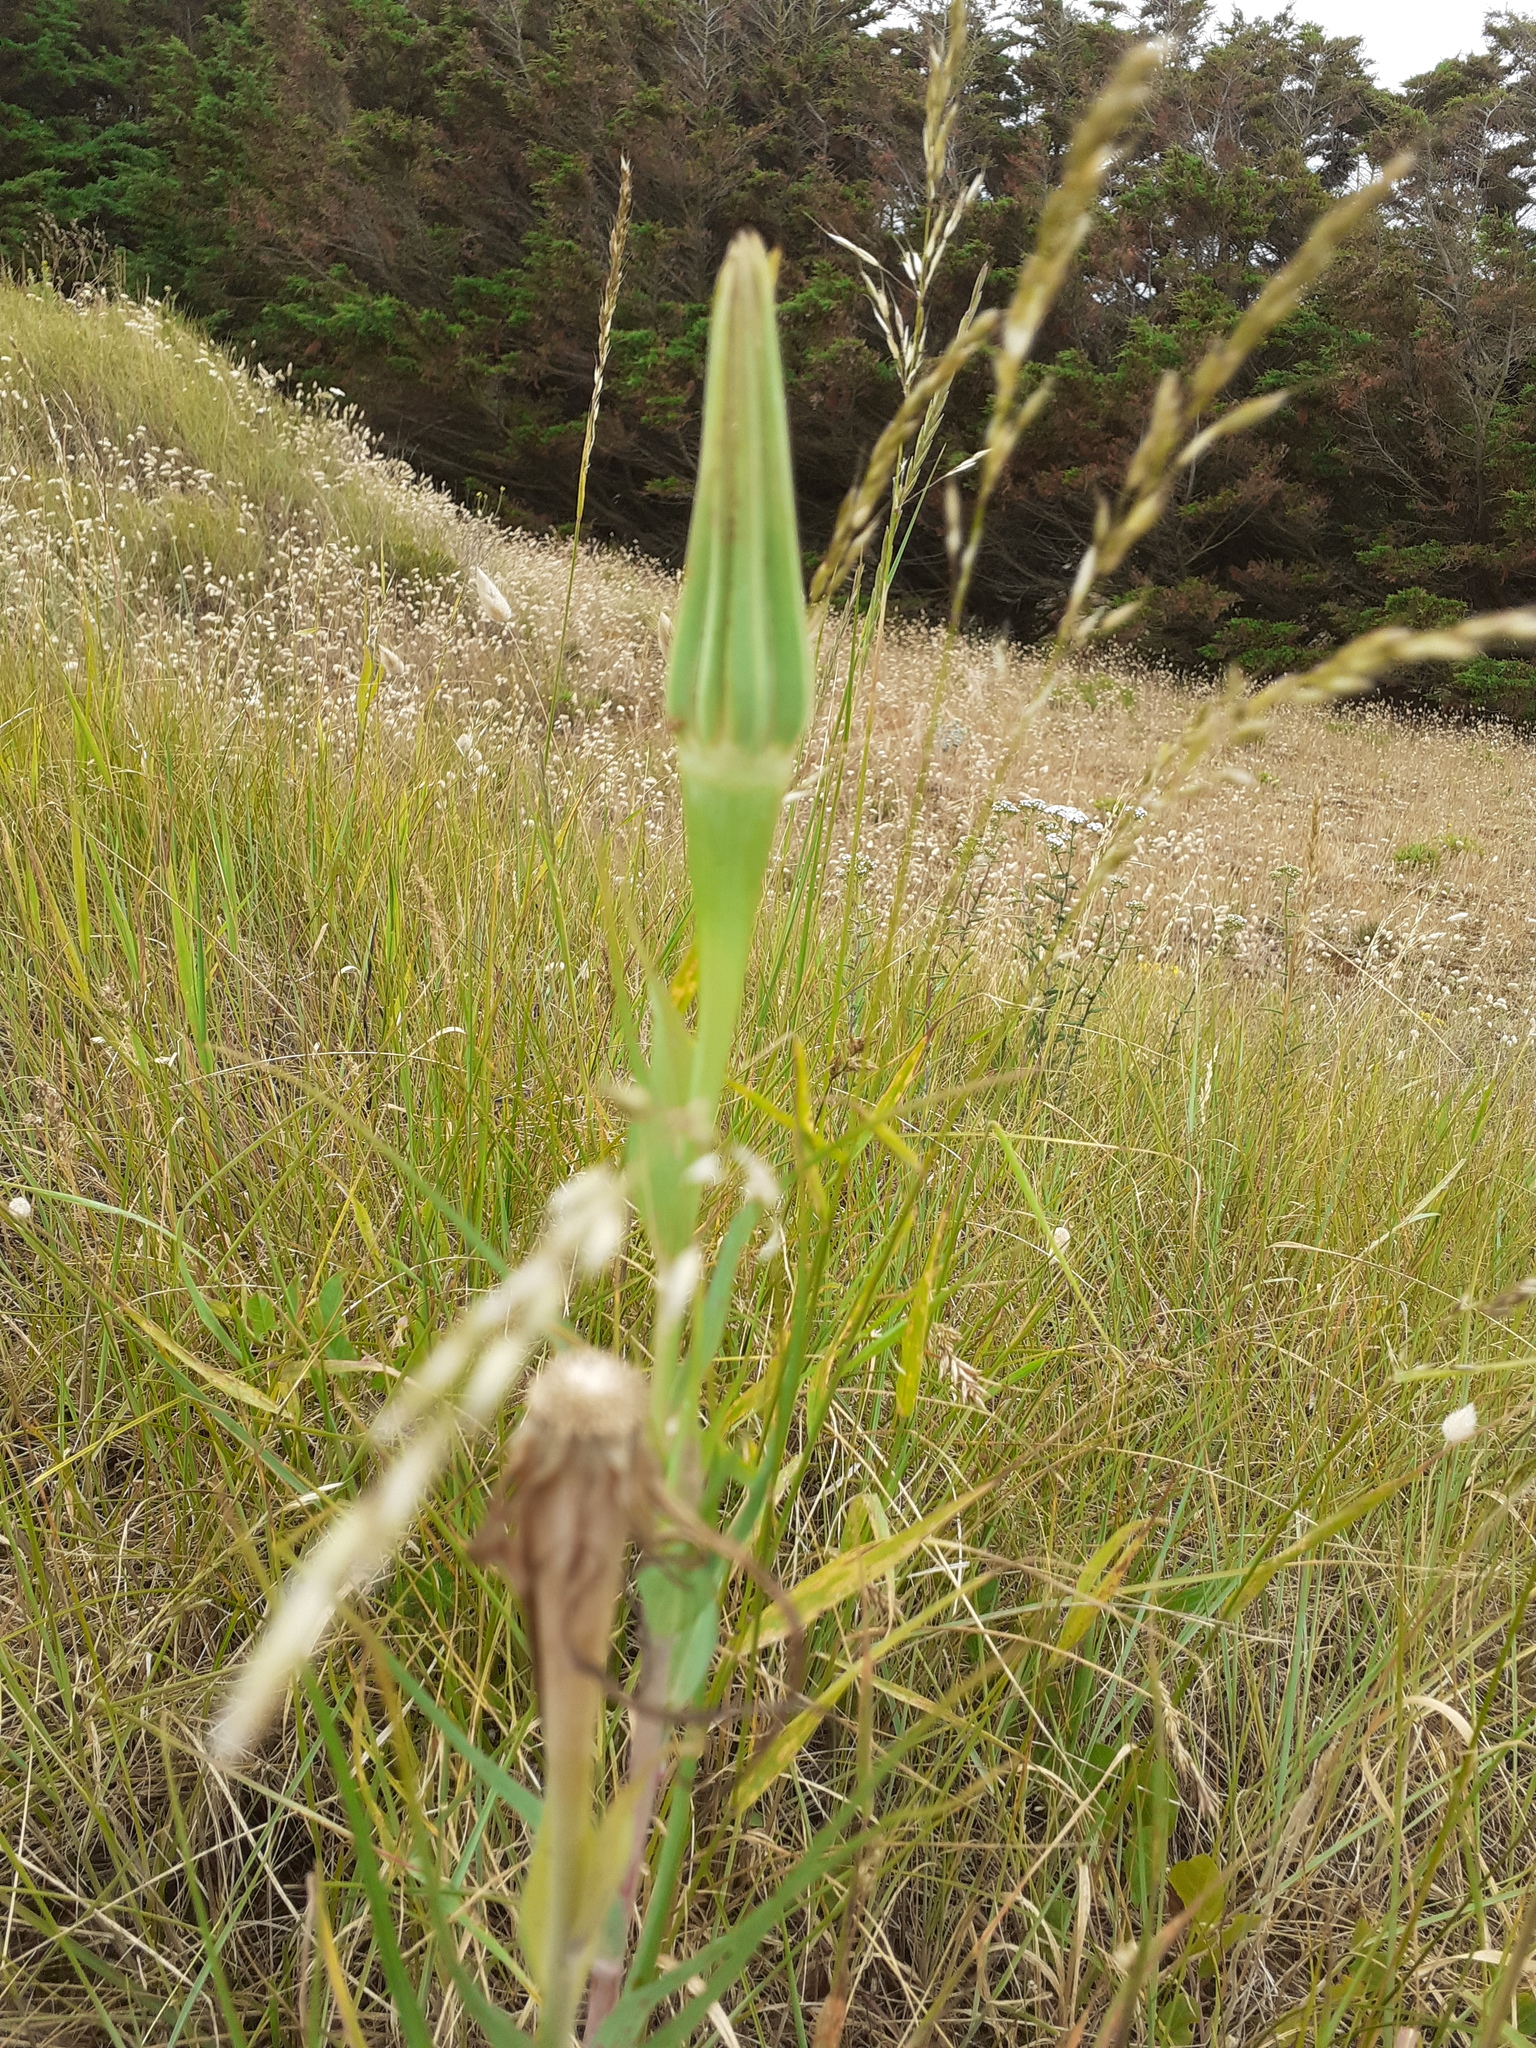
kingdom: Plantae
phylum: Tracheophyta
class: Magnoliopsida
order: Asterales
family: Asteraceae
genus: Tragopogon
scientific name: Tragopogon pratensis
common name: Goat's-beard
